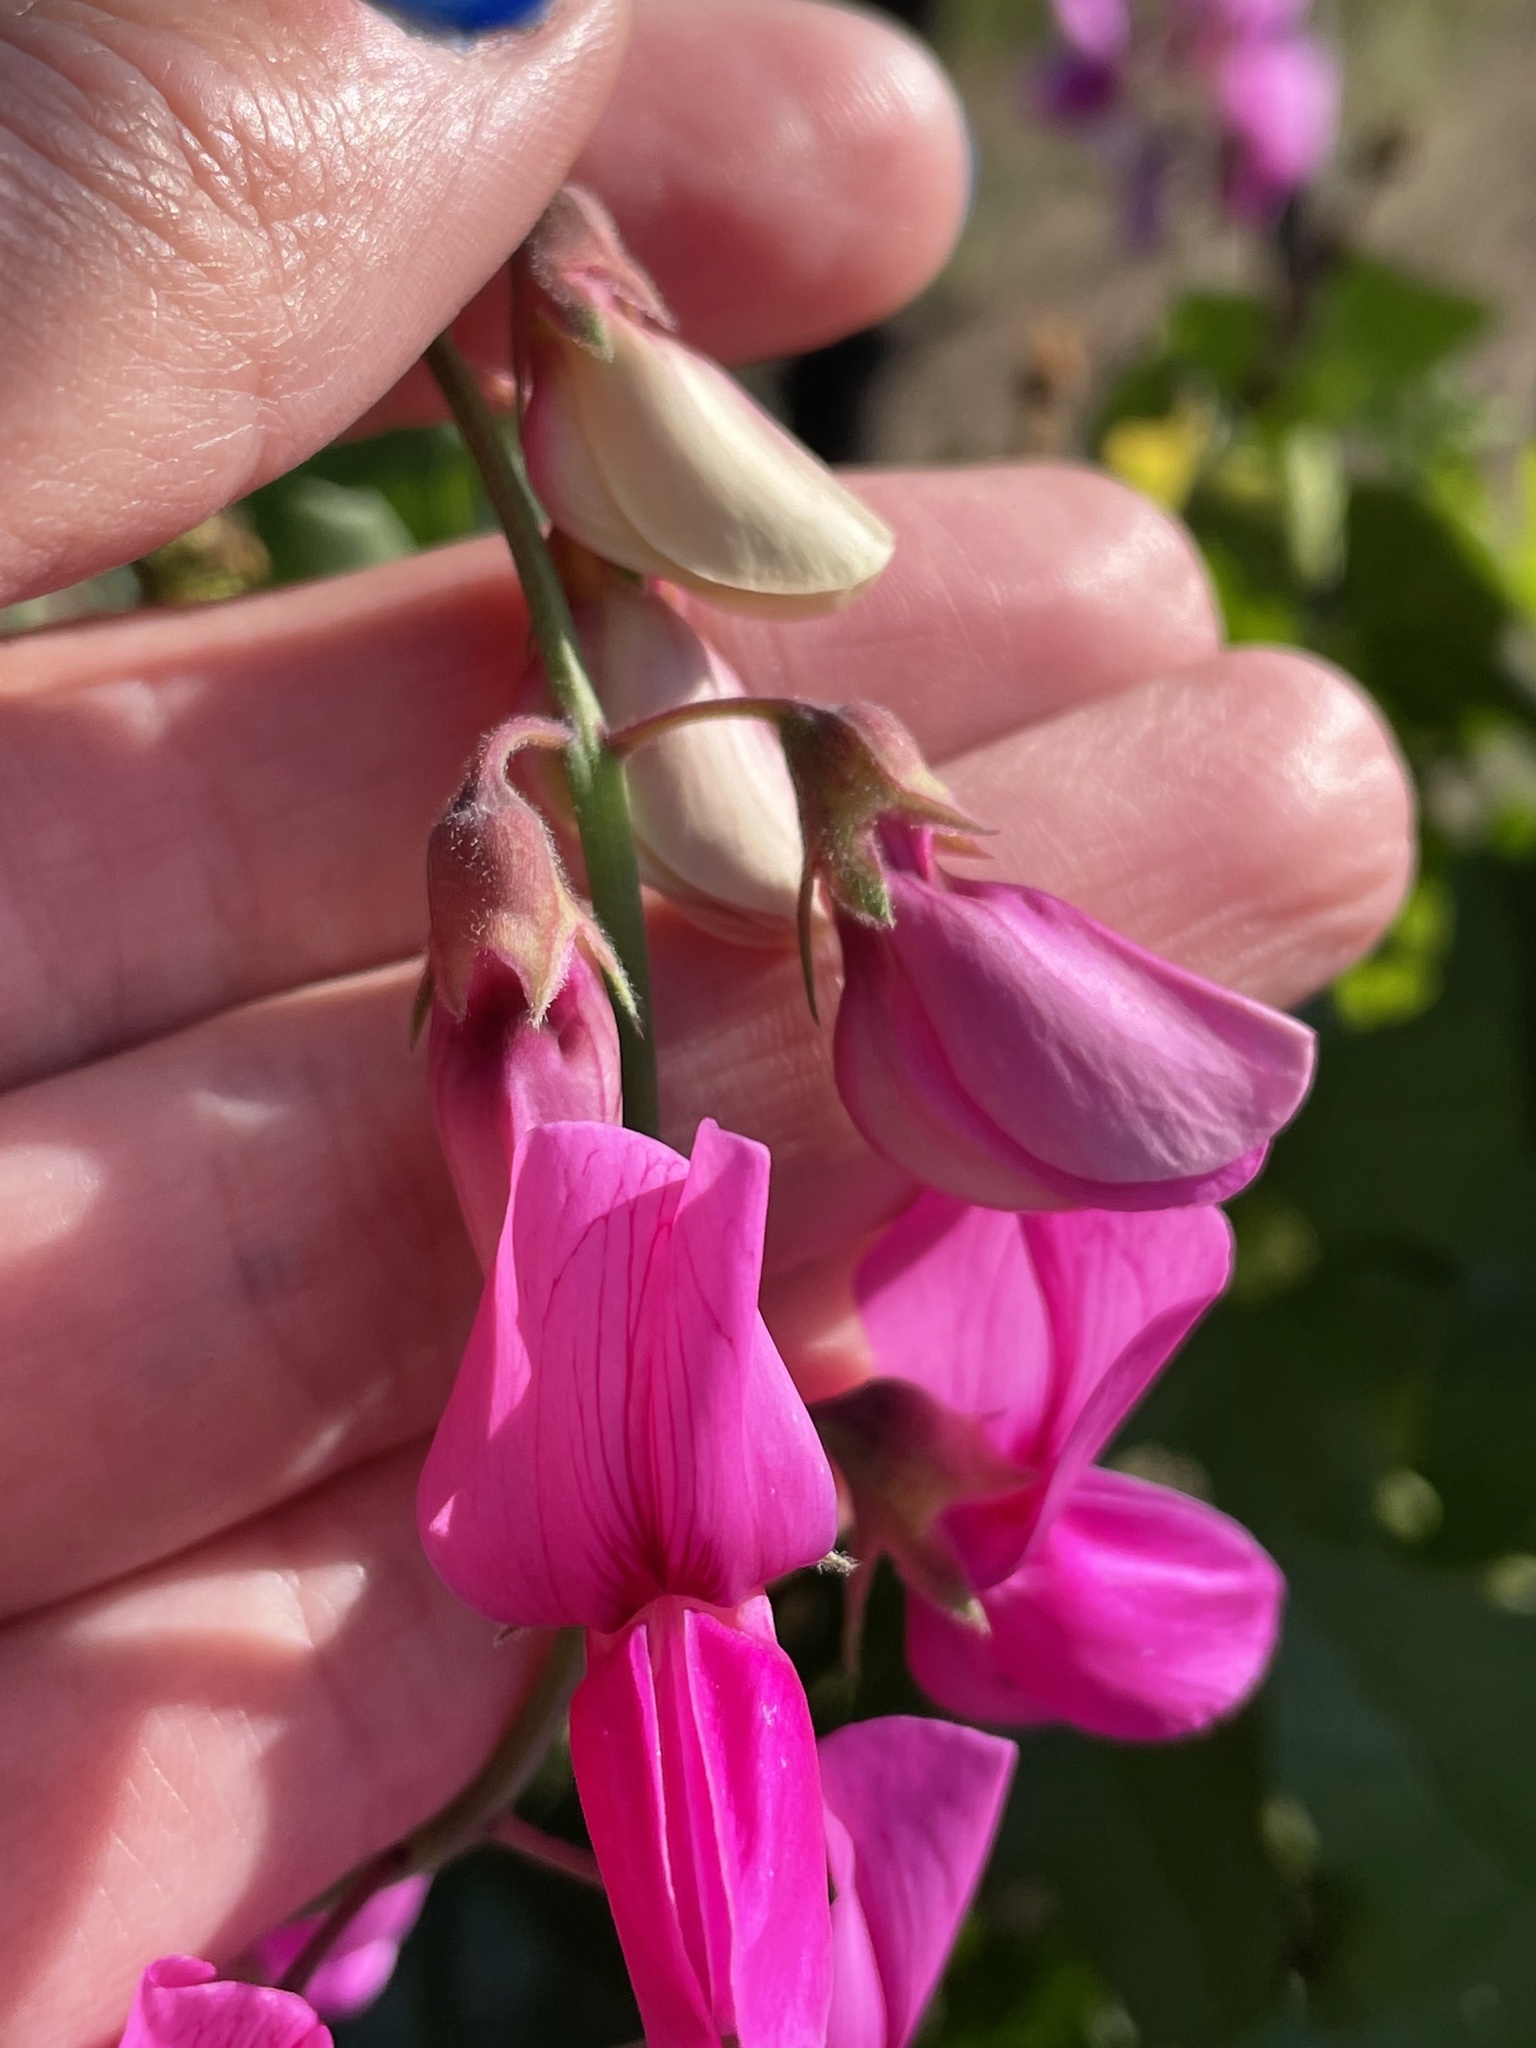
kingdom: Plantae
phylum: Tracheophyta
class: Magnoliopsida
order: Fabales
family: Fabaceae
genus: Lathyrus
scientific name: Lathyrus vestitus
